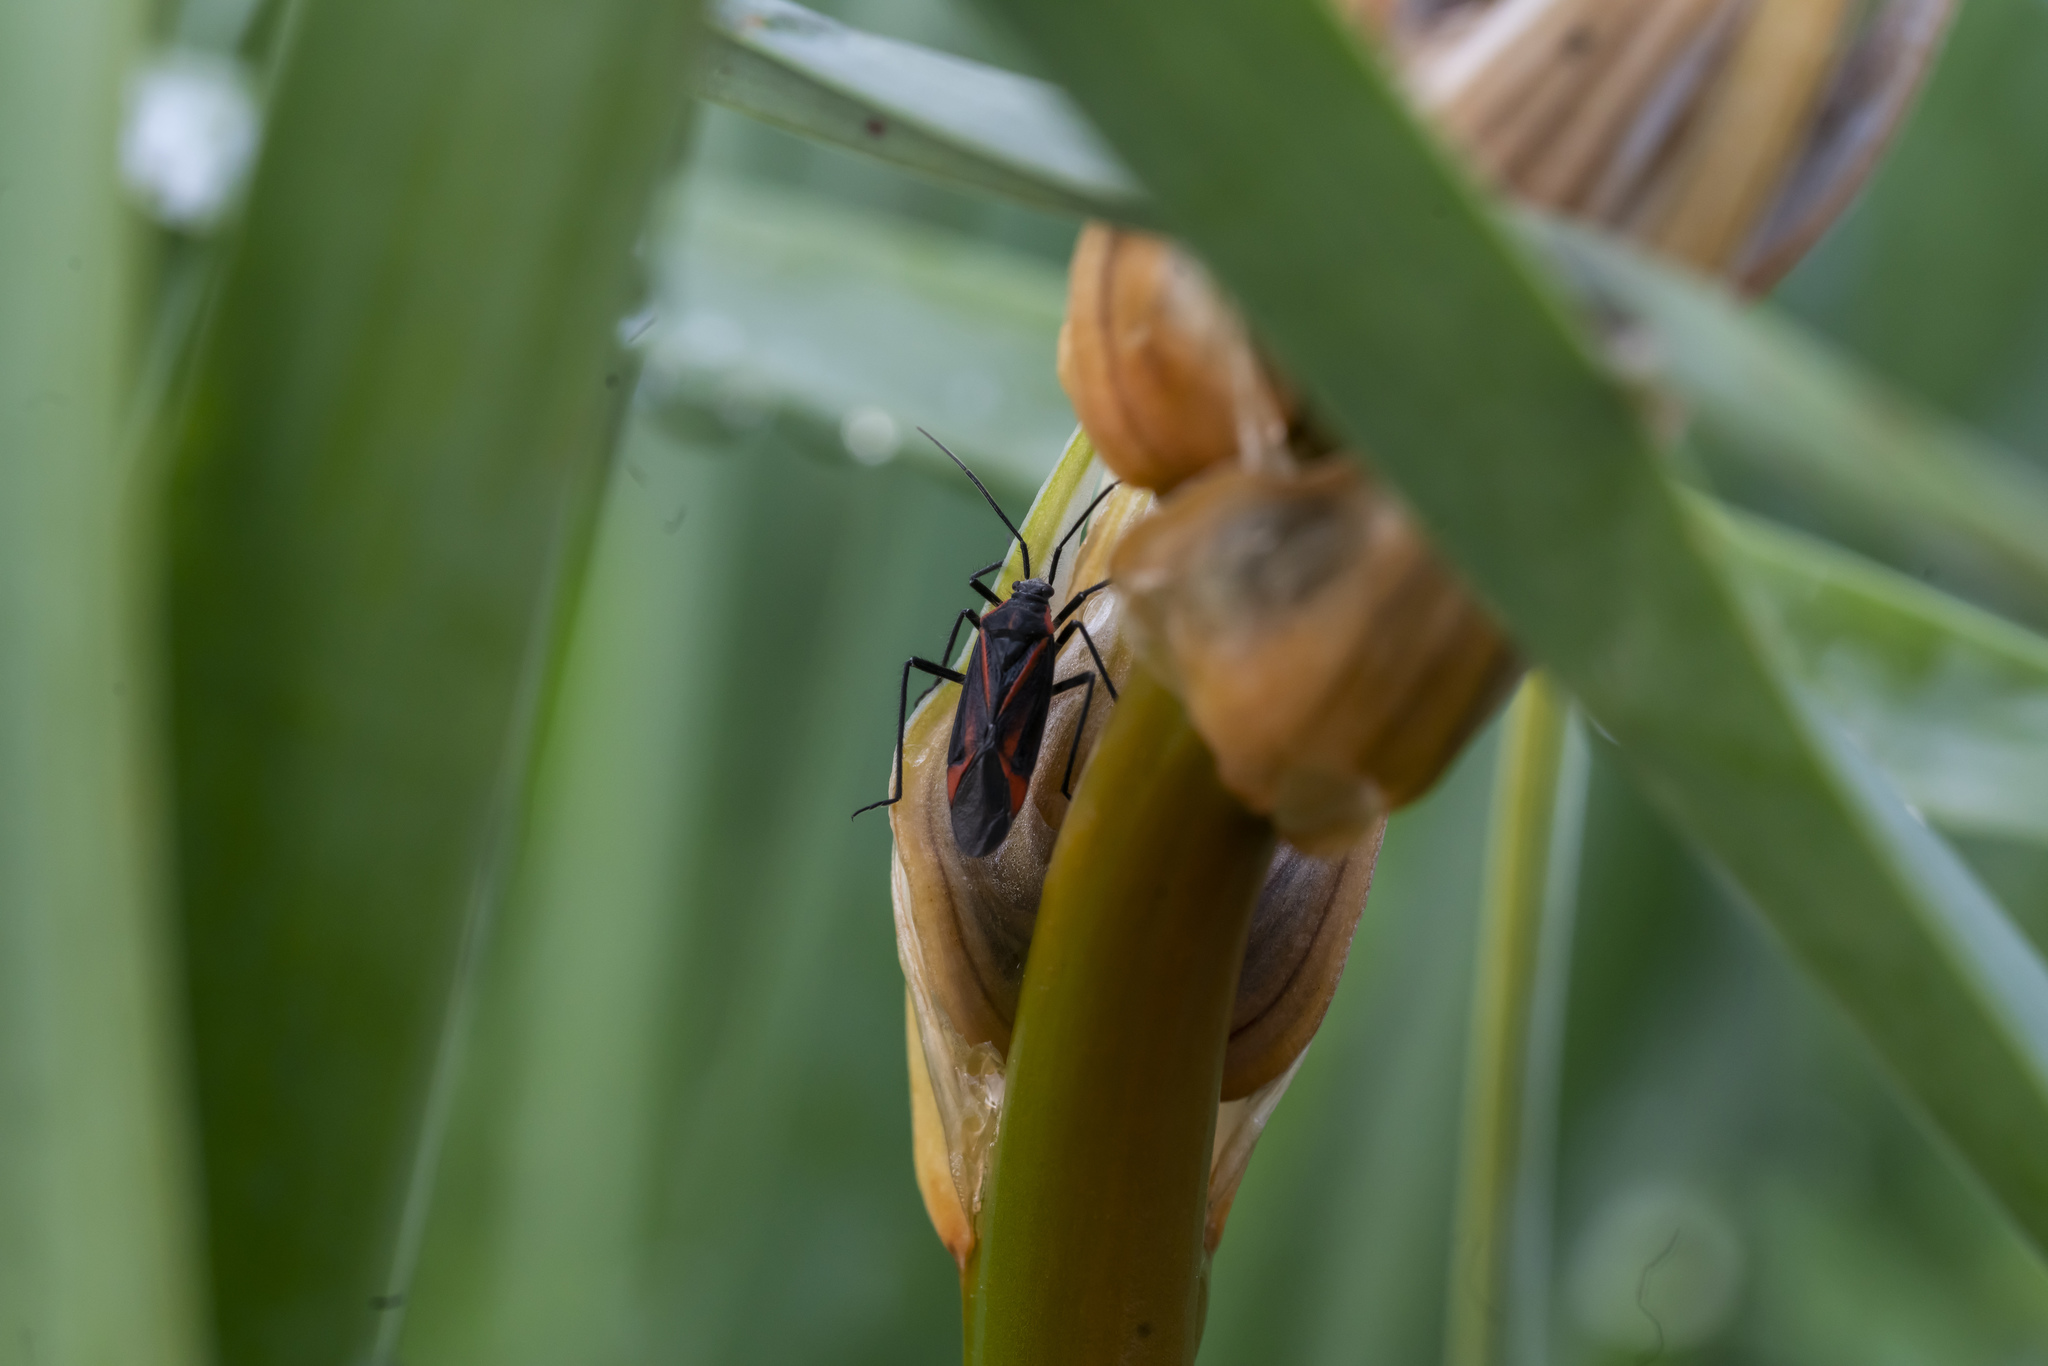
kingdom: Animalia
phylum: Arthropoda
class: Insecta
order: Hemiptera
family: Miridae
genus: Horistus
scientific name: Horistus infuscatus
